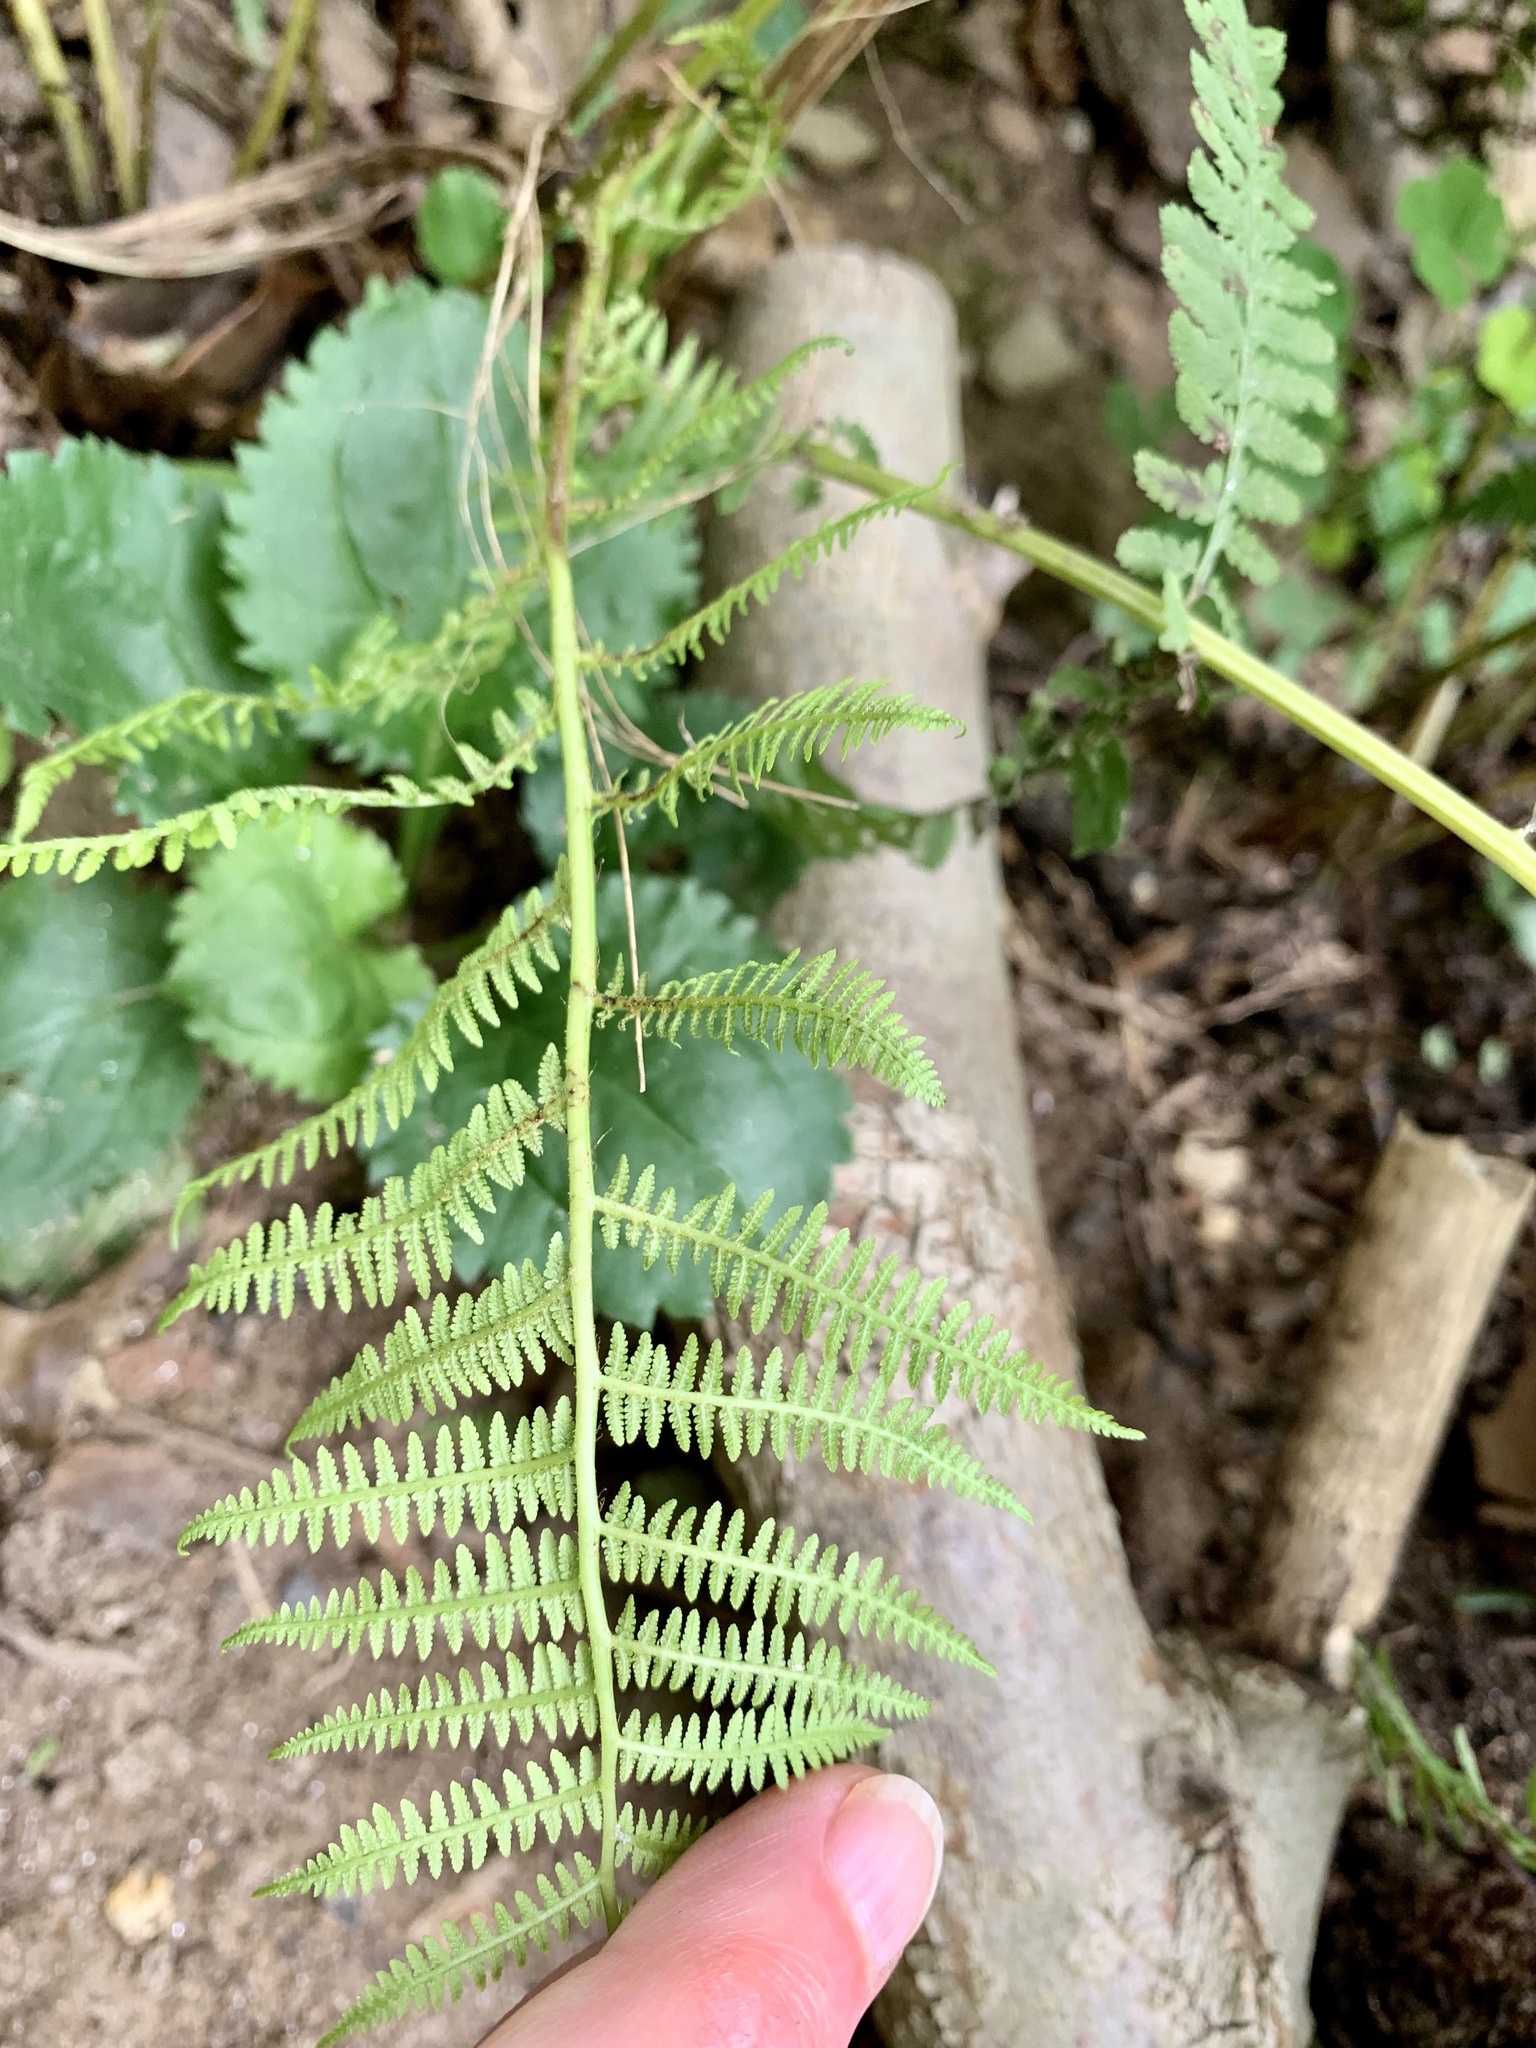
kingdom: Plantae
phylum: Tracheophyta
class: Polypodiopsida
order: Polypodiales
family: Athyriaceae
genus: Athyrium
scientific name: Athyrium asplenioides
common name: Southern lady fern
